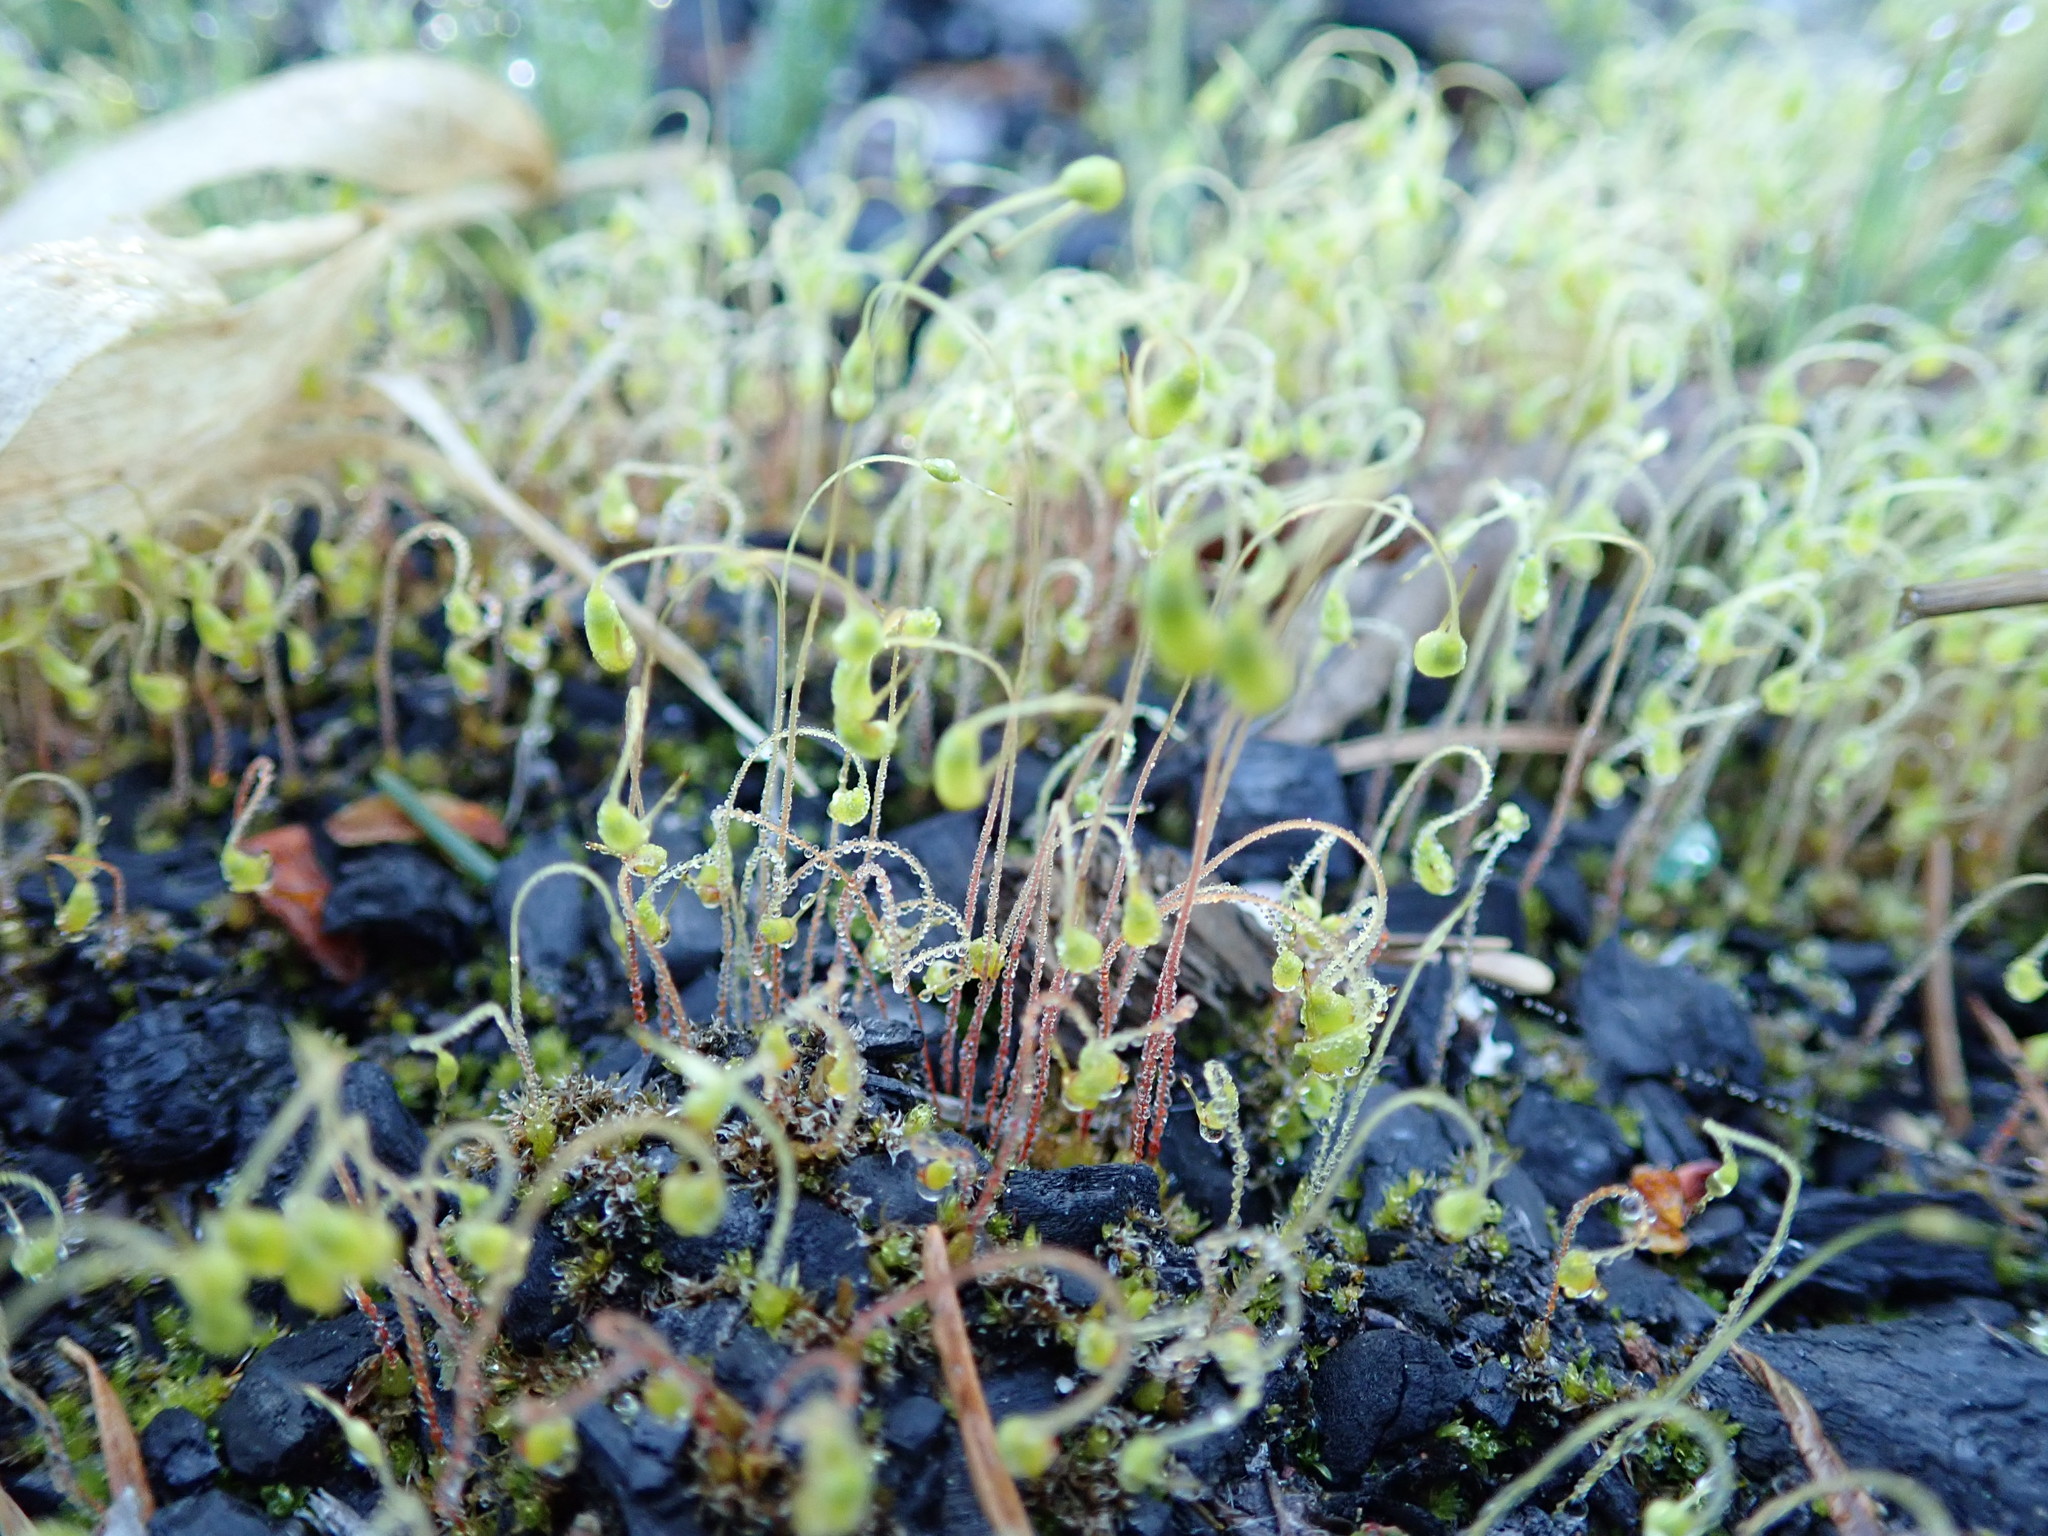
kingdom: Plantae
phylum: Bryophyta
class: Bryopsida
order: Funariales
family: Funariaceae
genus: Funaria
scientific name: Funaria hygrometrica
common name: Common cord moss
